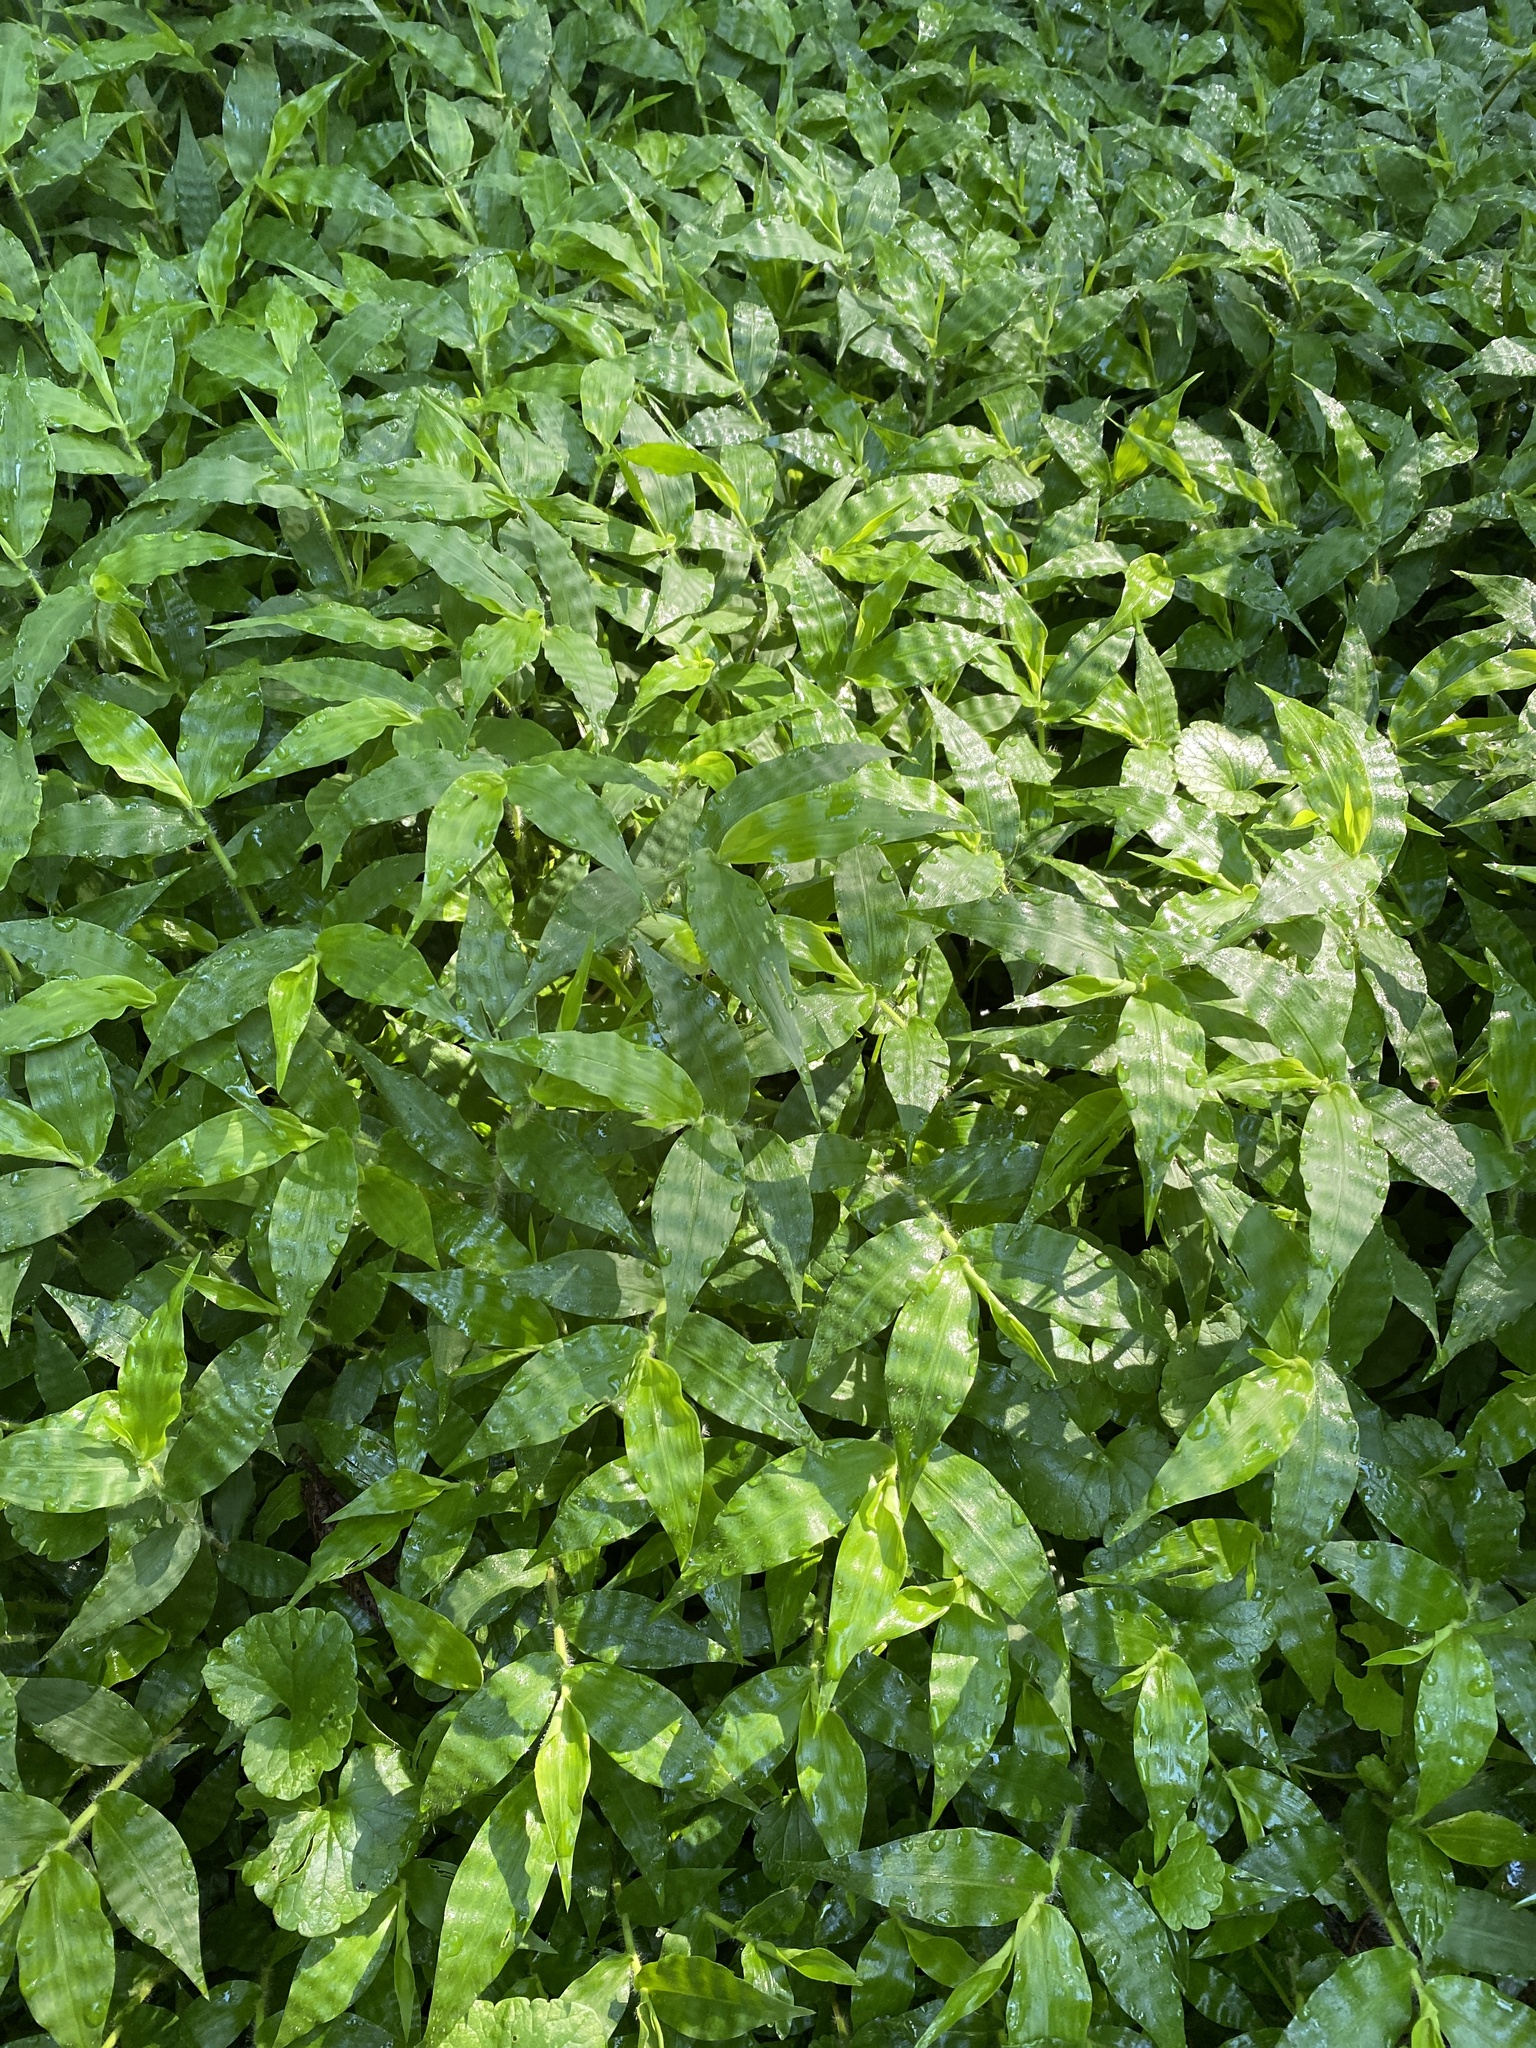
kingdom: Plantae
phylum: Tracheophyta
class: Liliopsida
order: Poales
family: Poaceae
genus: Oplismenus
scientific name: Oplismenus undulatifolius
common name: Wavyleaf basketgrass
